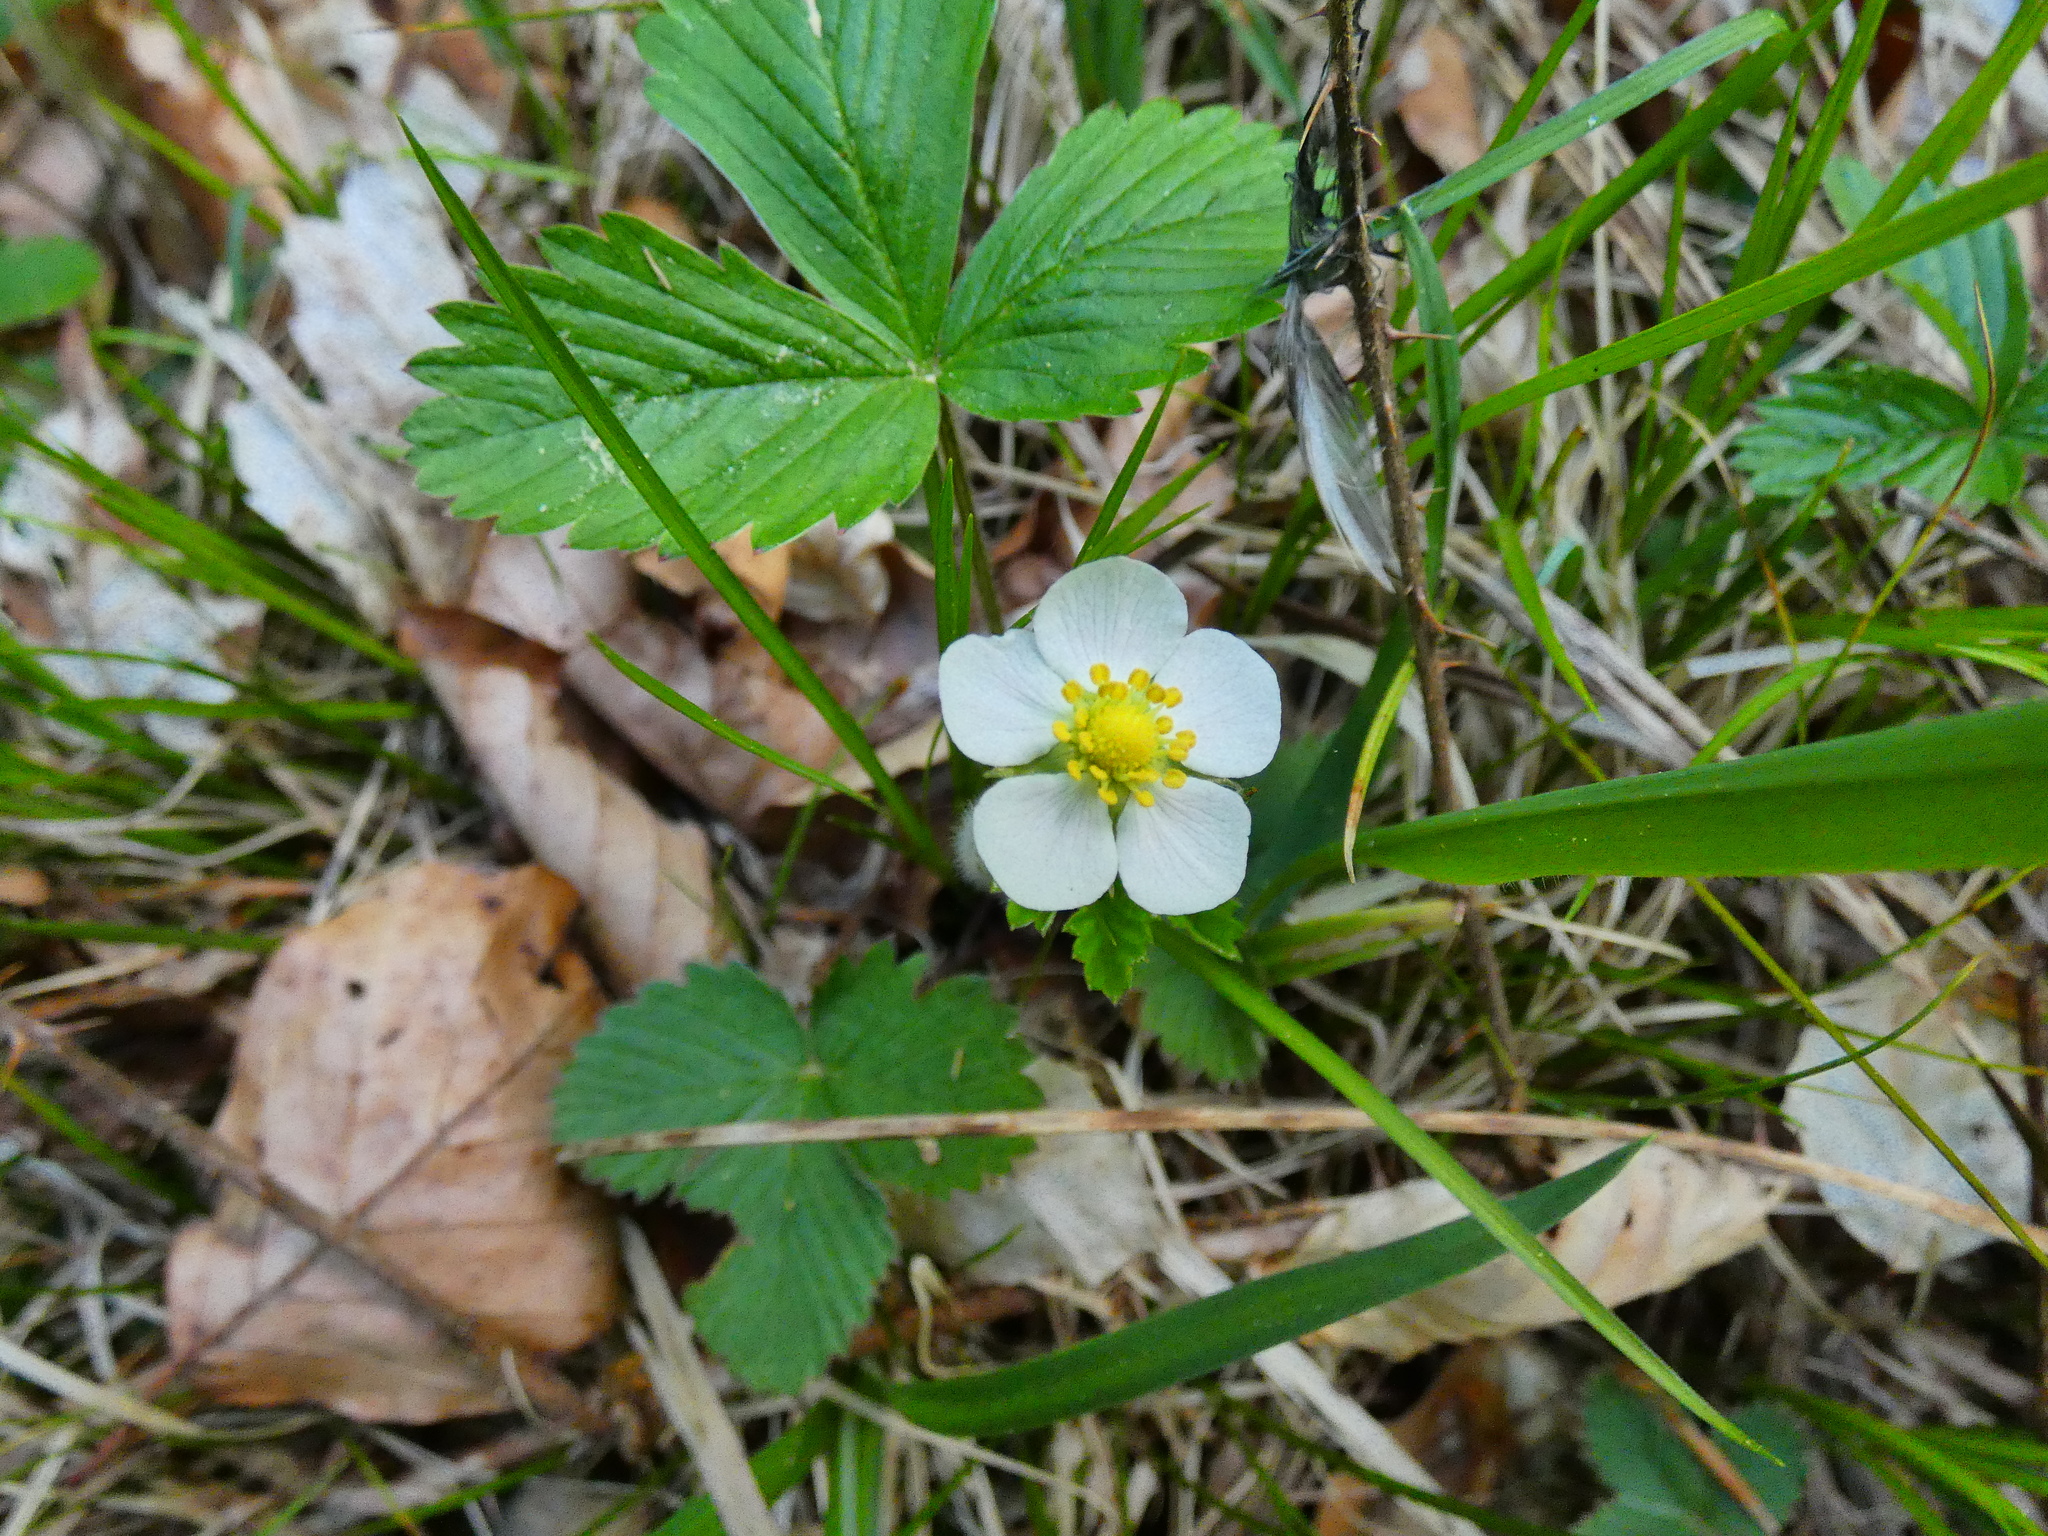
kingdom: Plantae
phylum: Tracheophyta
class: Magnoliopsida
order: Rosales
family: Rosaceae
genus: Fragaria
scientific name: Fragaria vesca
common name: Wild strawberry
